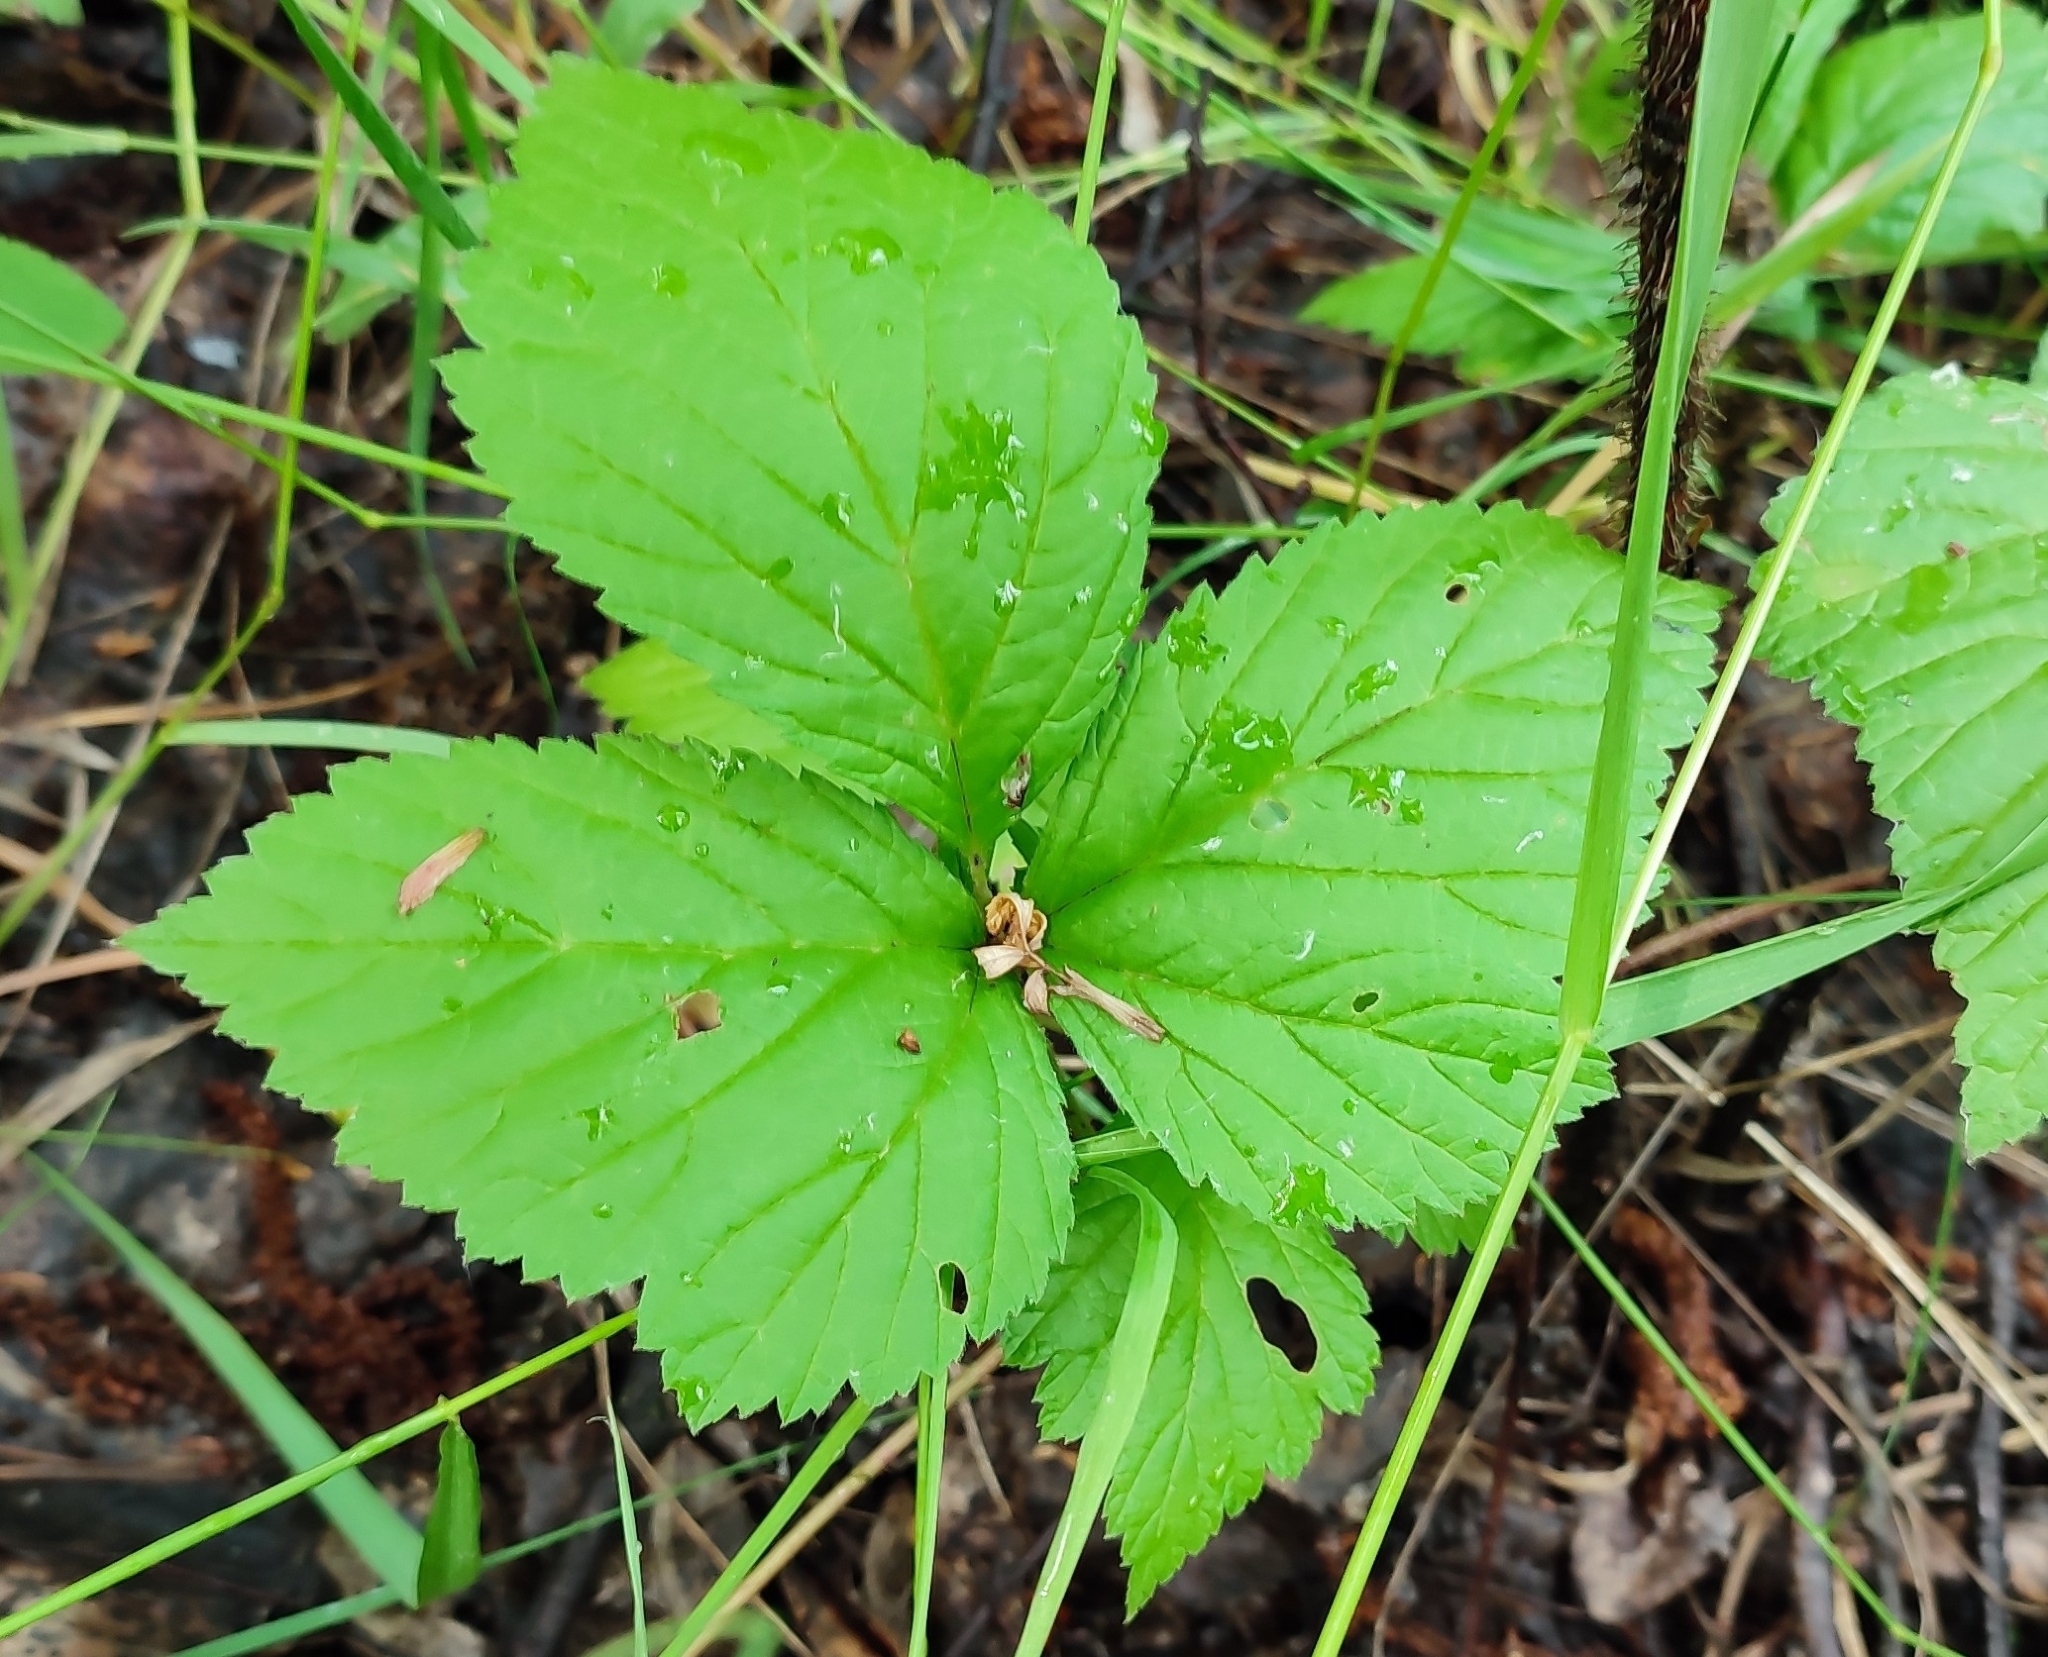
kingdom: Plantae
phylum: Tracheophyta
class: Magnoliopsida
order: Rosales
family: Rosaceae
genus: Rubus
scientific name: Rubus saxatilis
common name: Stone bramble
